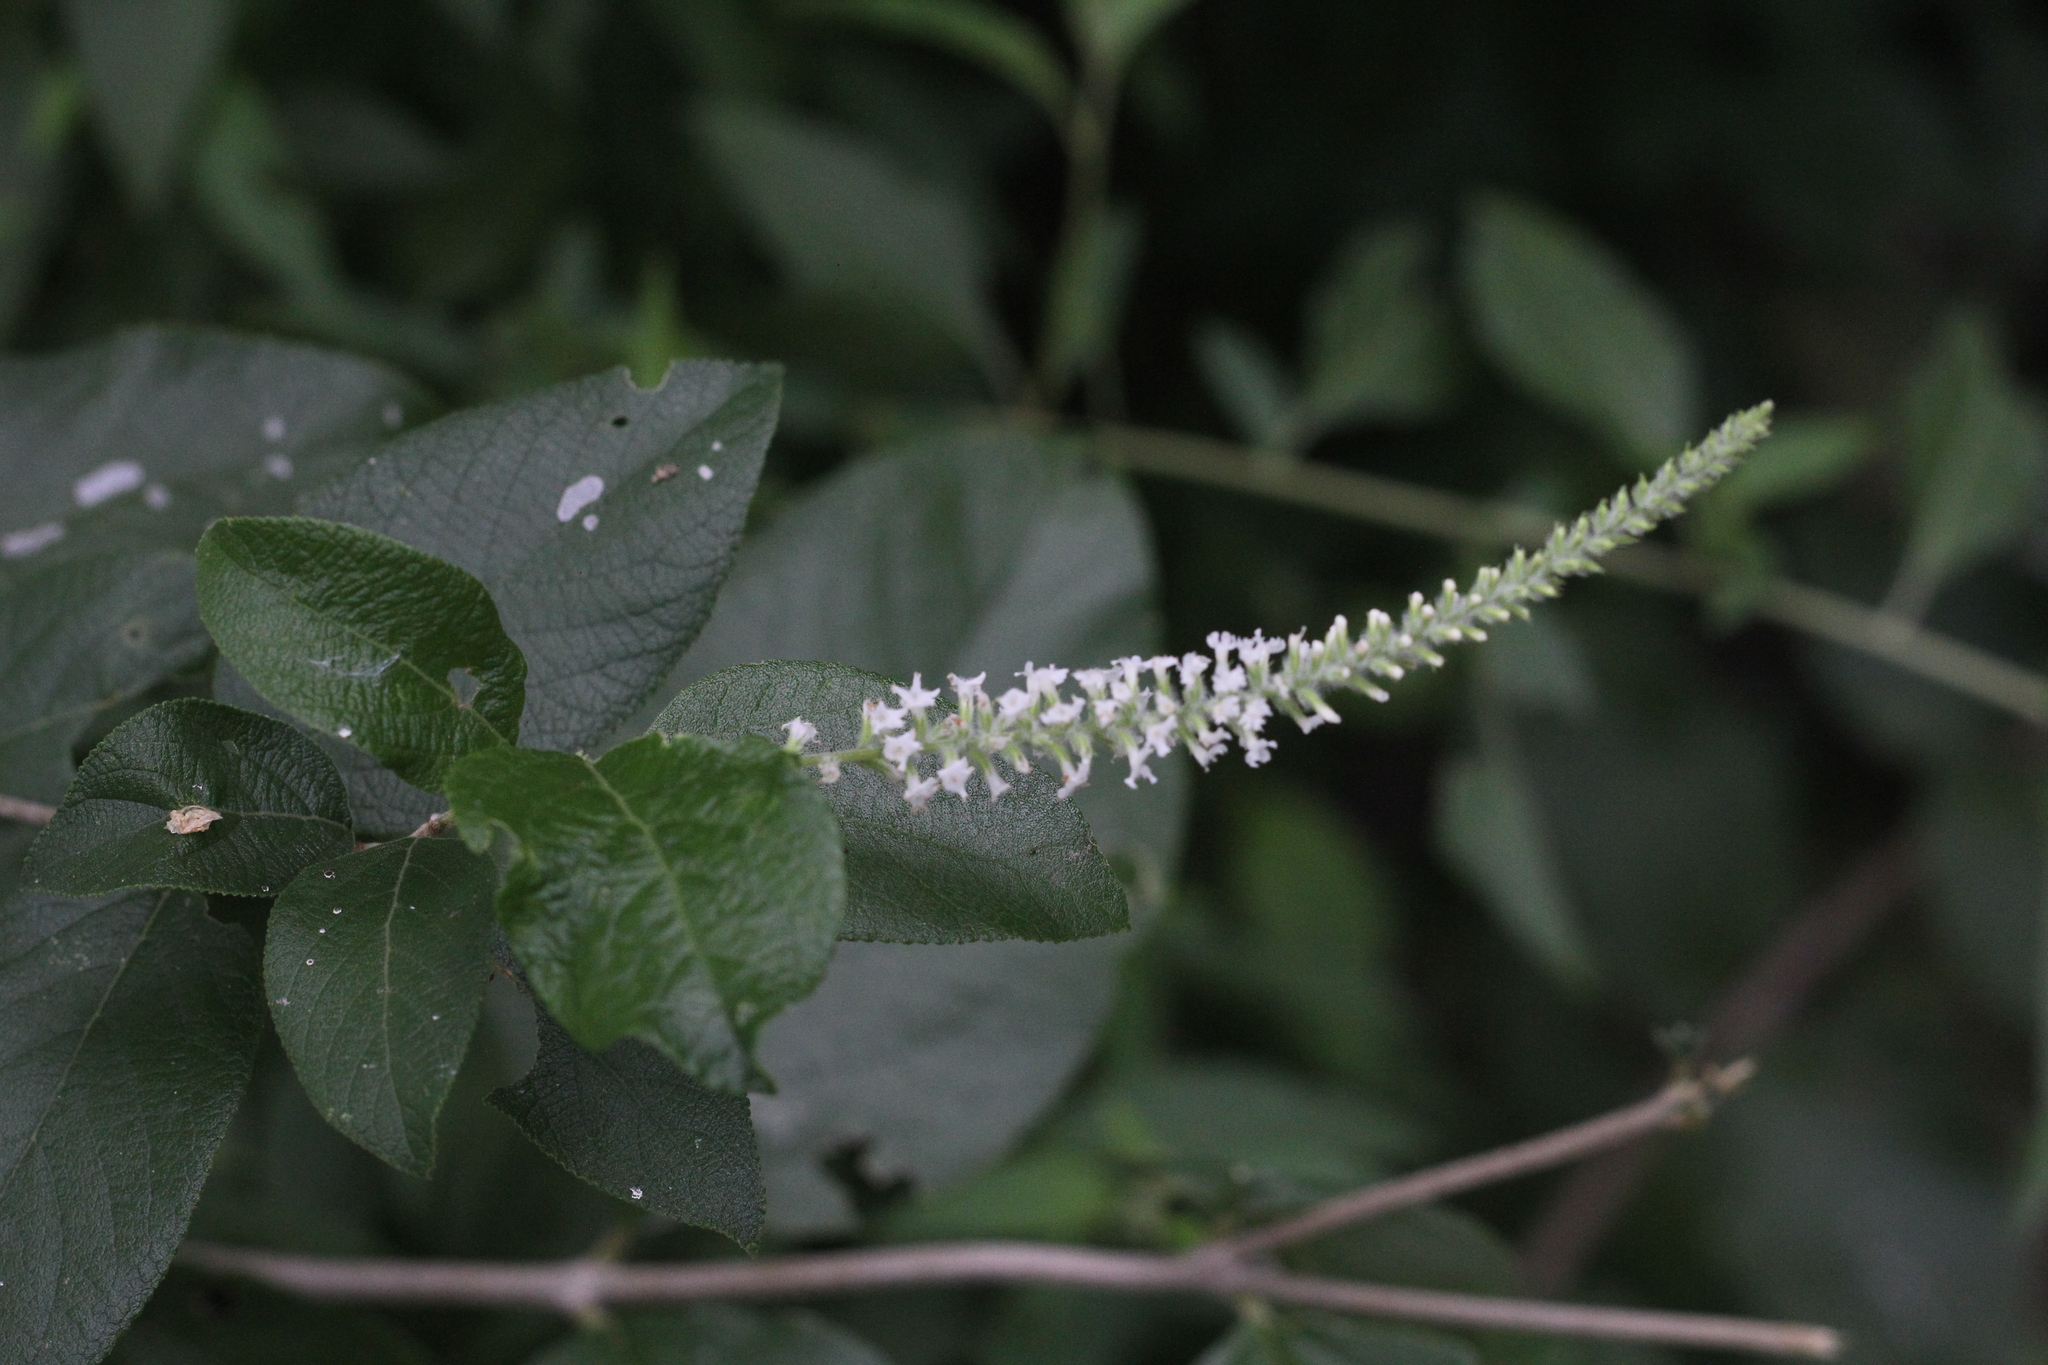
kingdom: Plantae
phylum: Tracheophyta
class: Magnoliopsida
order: Lamiales
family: Verbenaceae
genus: Aloysia
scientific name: Aloysia virgata
